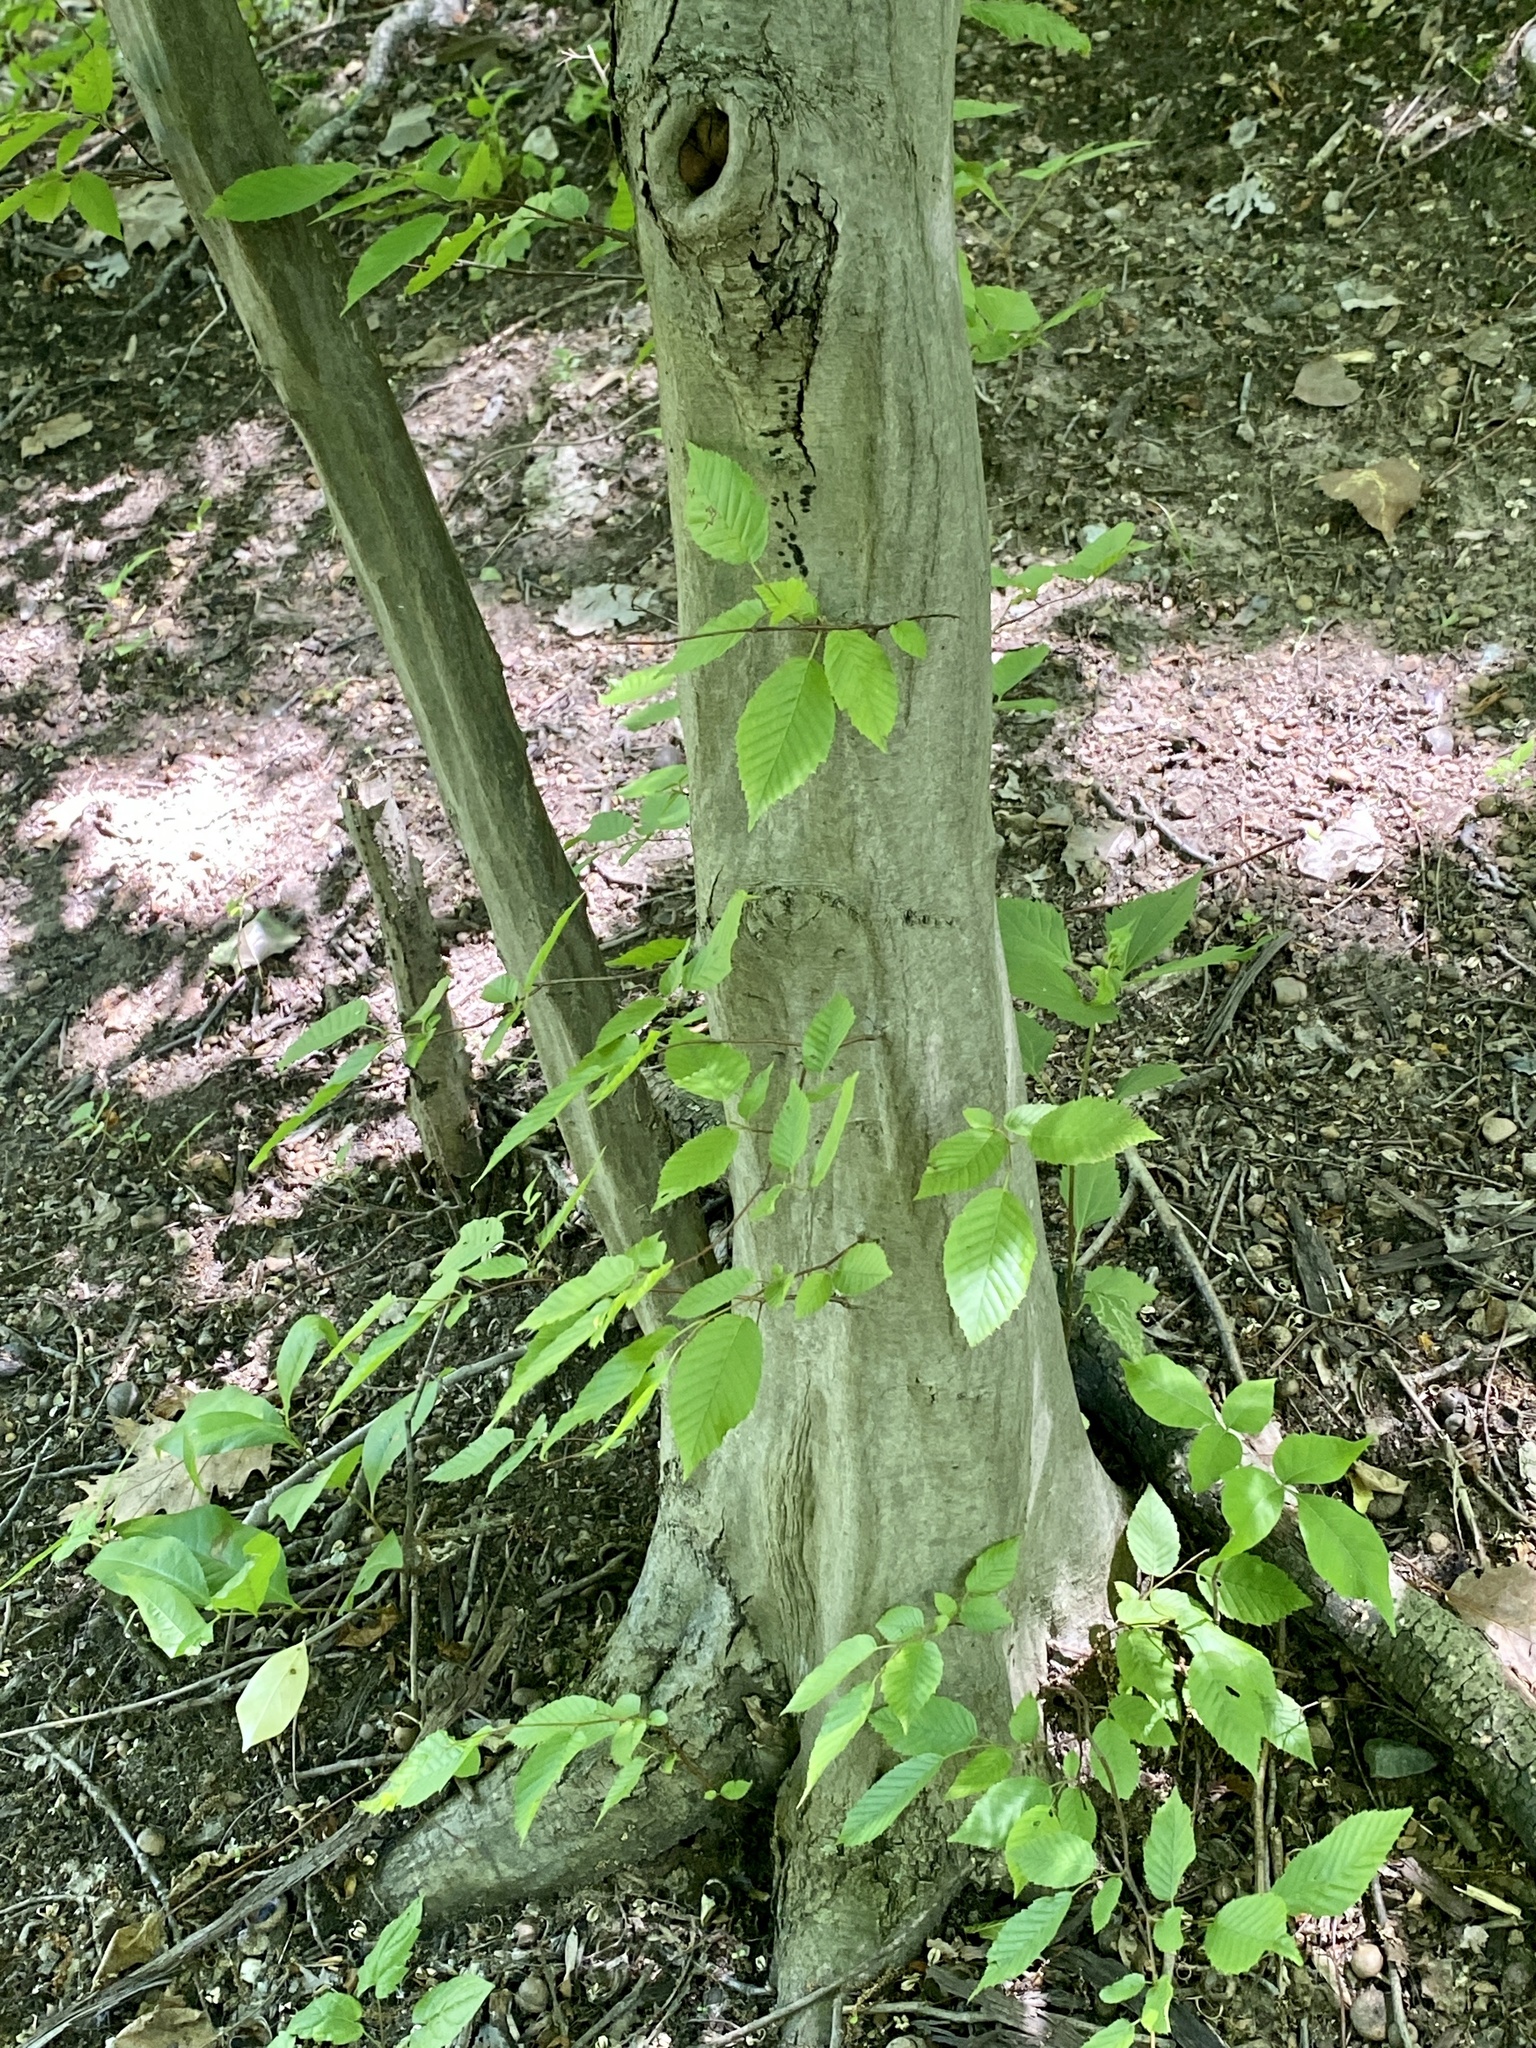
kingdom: Plantae
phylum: Tracheophyta
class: Magnoliopsida
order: Fagales
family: Betulaceae
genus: Carpinus
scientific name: Carpinus caroliniana
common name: American hornbeam
